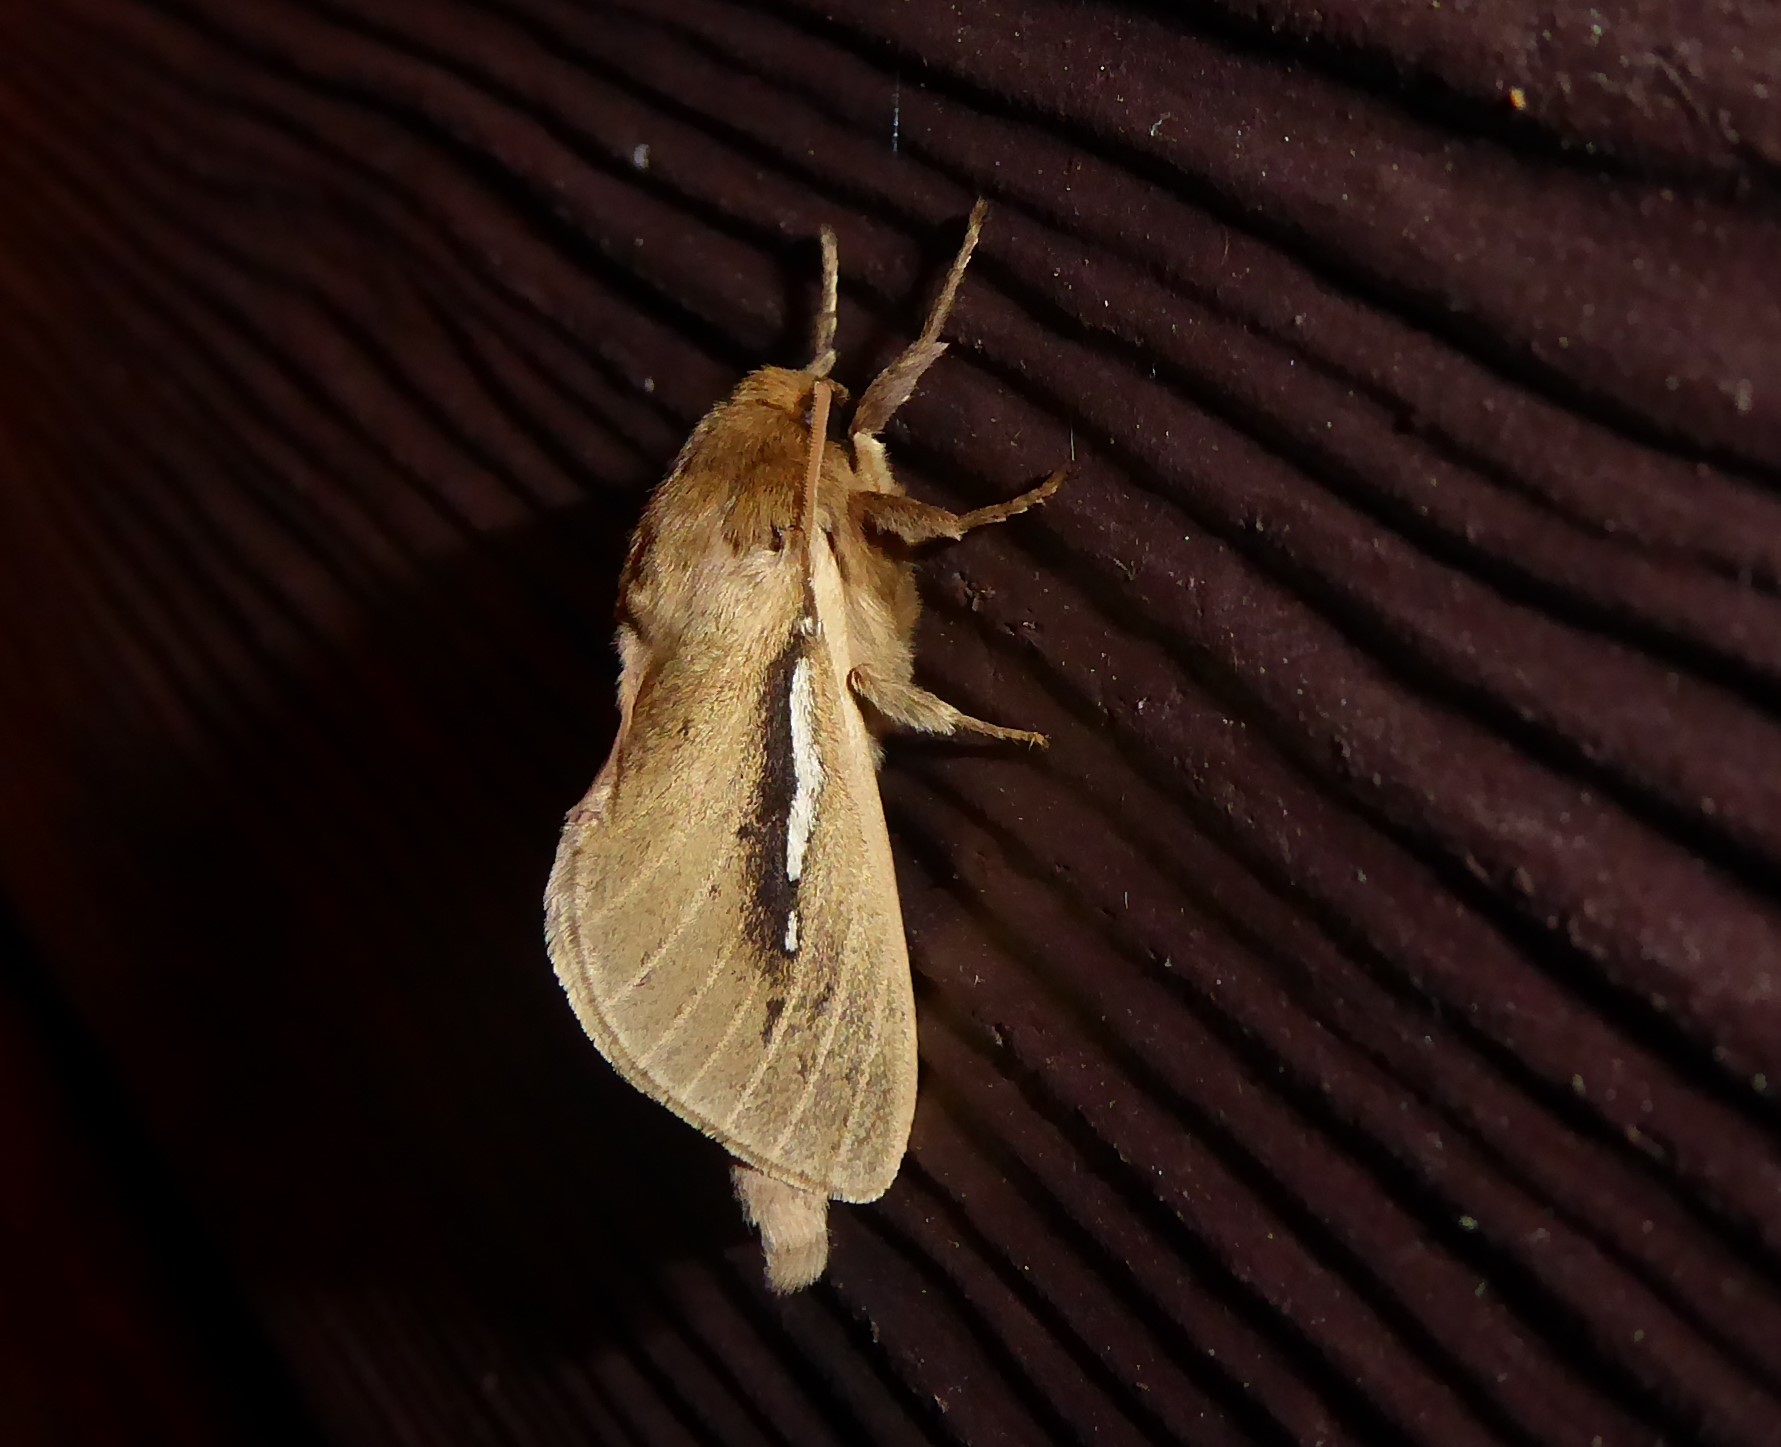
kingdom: Animalia
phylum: Arthropoda
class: Insecta
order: Lepidoptera
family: Hepialidae
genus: Wiseana
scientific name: Wiseana umbraculatus
